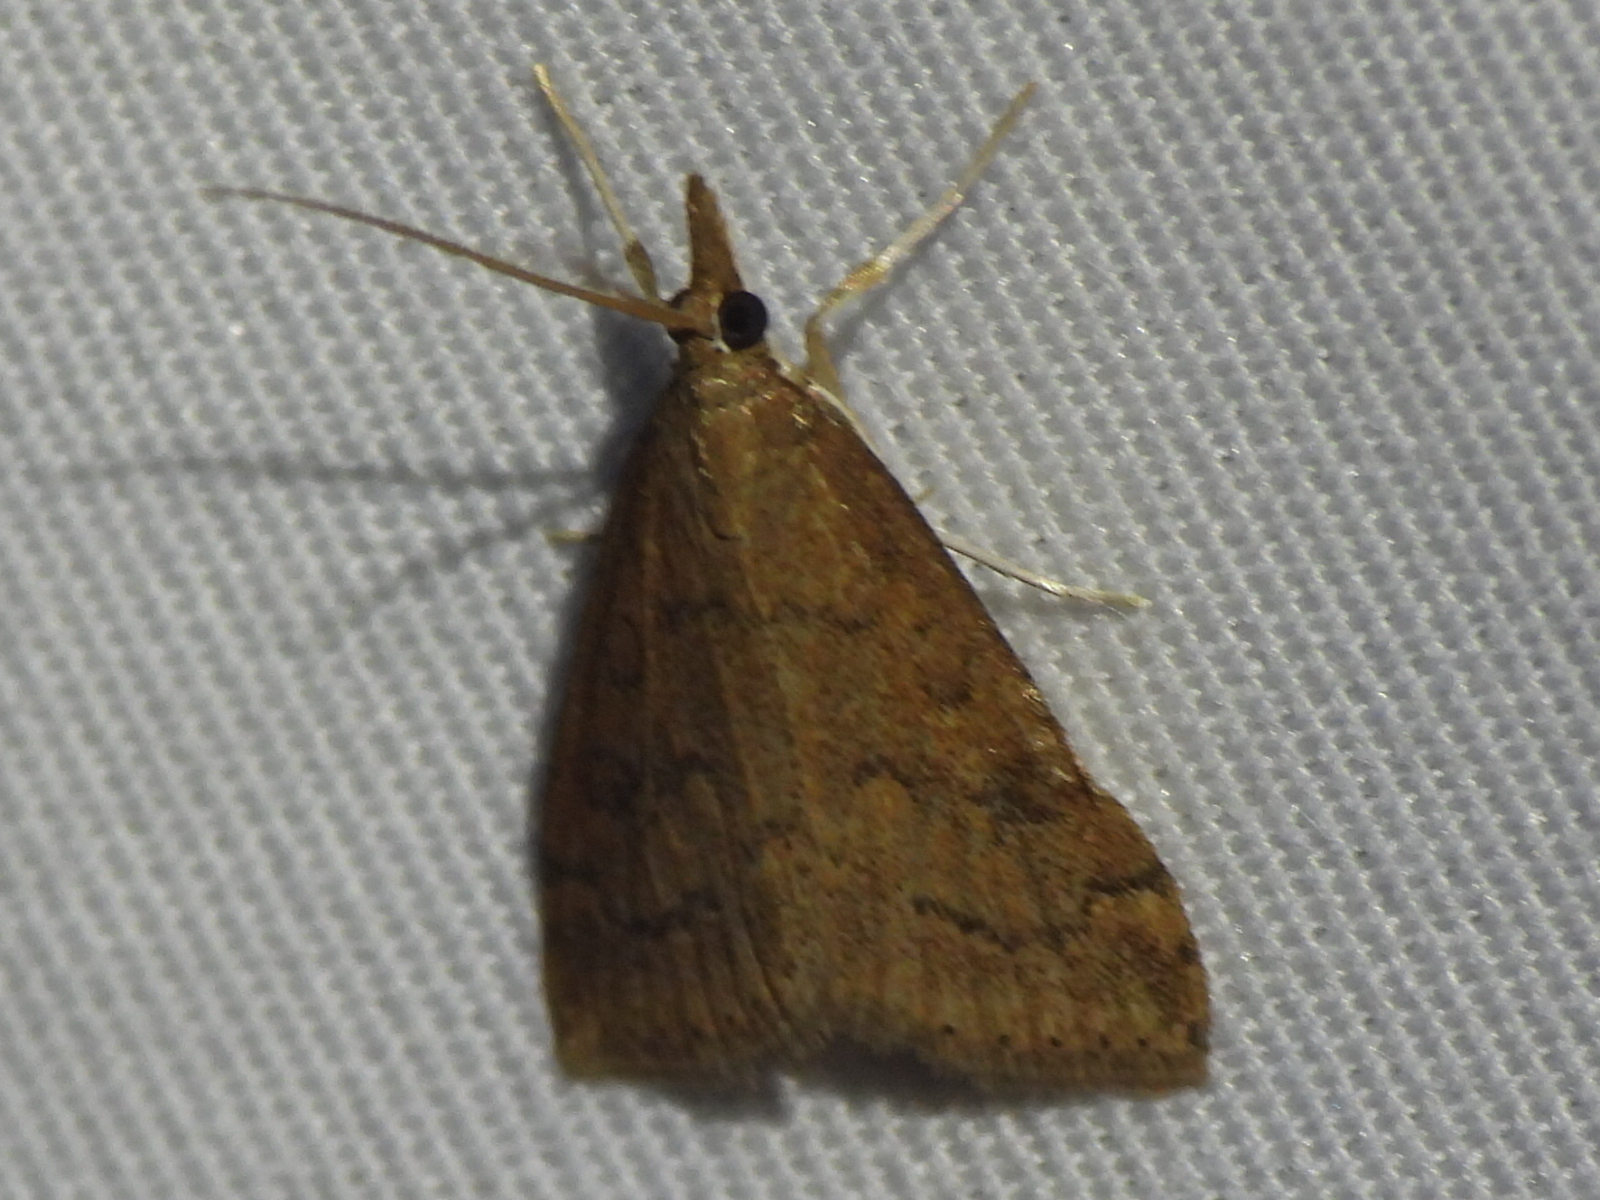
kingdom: Animalia
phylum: Arthropoda
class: Insecta
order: Lepidoptera
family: Crambidae
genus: Udea
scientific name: Udea rubigalis
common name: Celery leaftier moth
